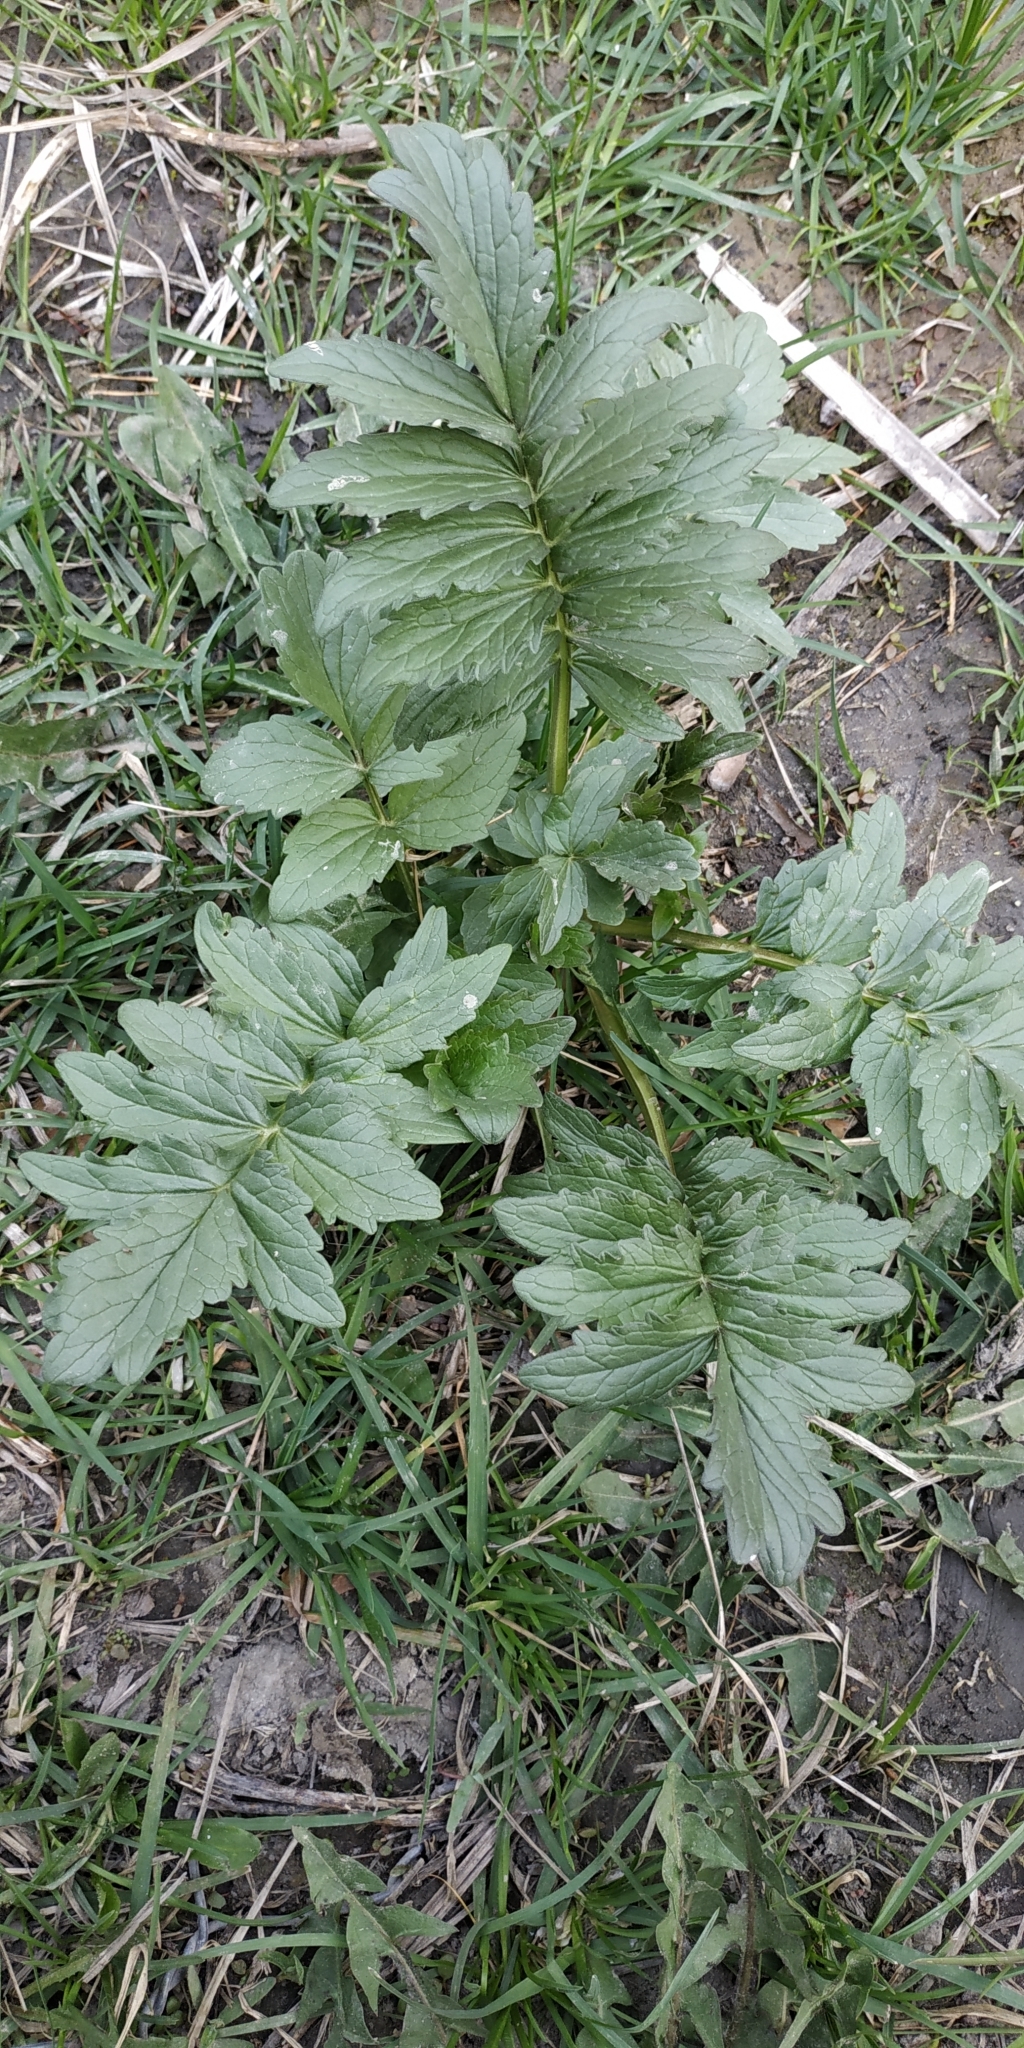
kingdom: Plantae
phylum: Tracheophyta
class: Magnoliopsida
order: Dipsacales
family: Caprifoliaceae
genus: Valeriana
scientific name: Valeriana wolgensis
